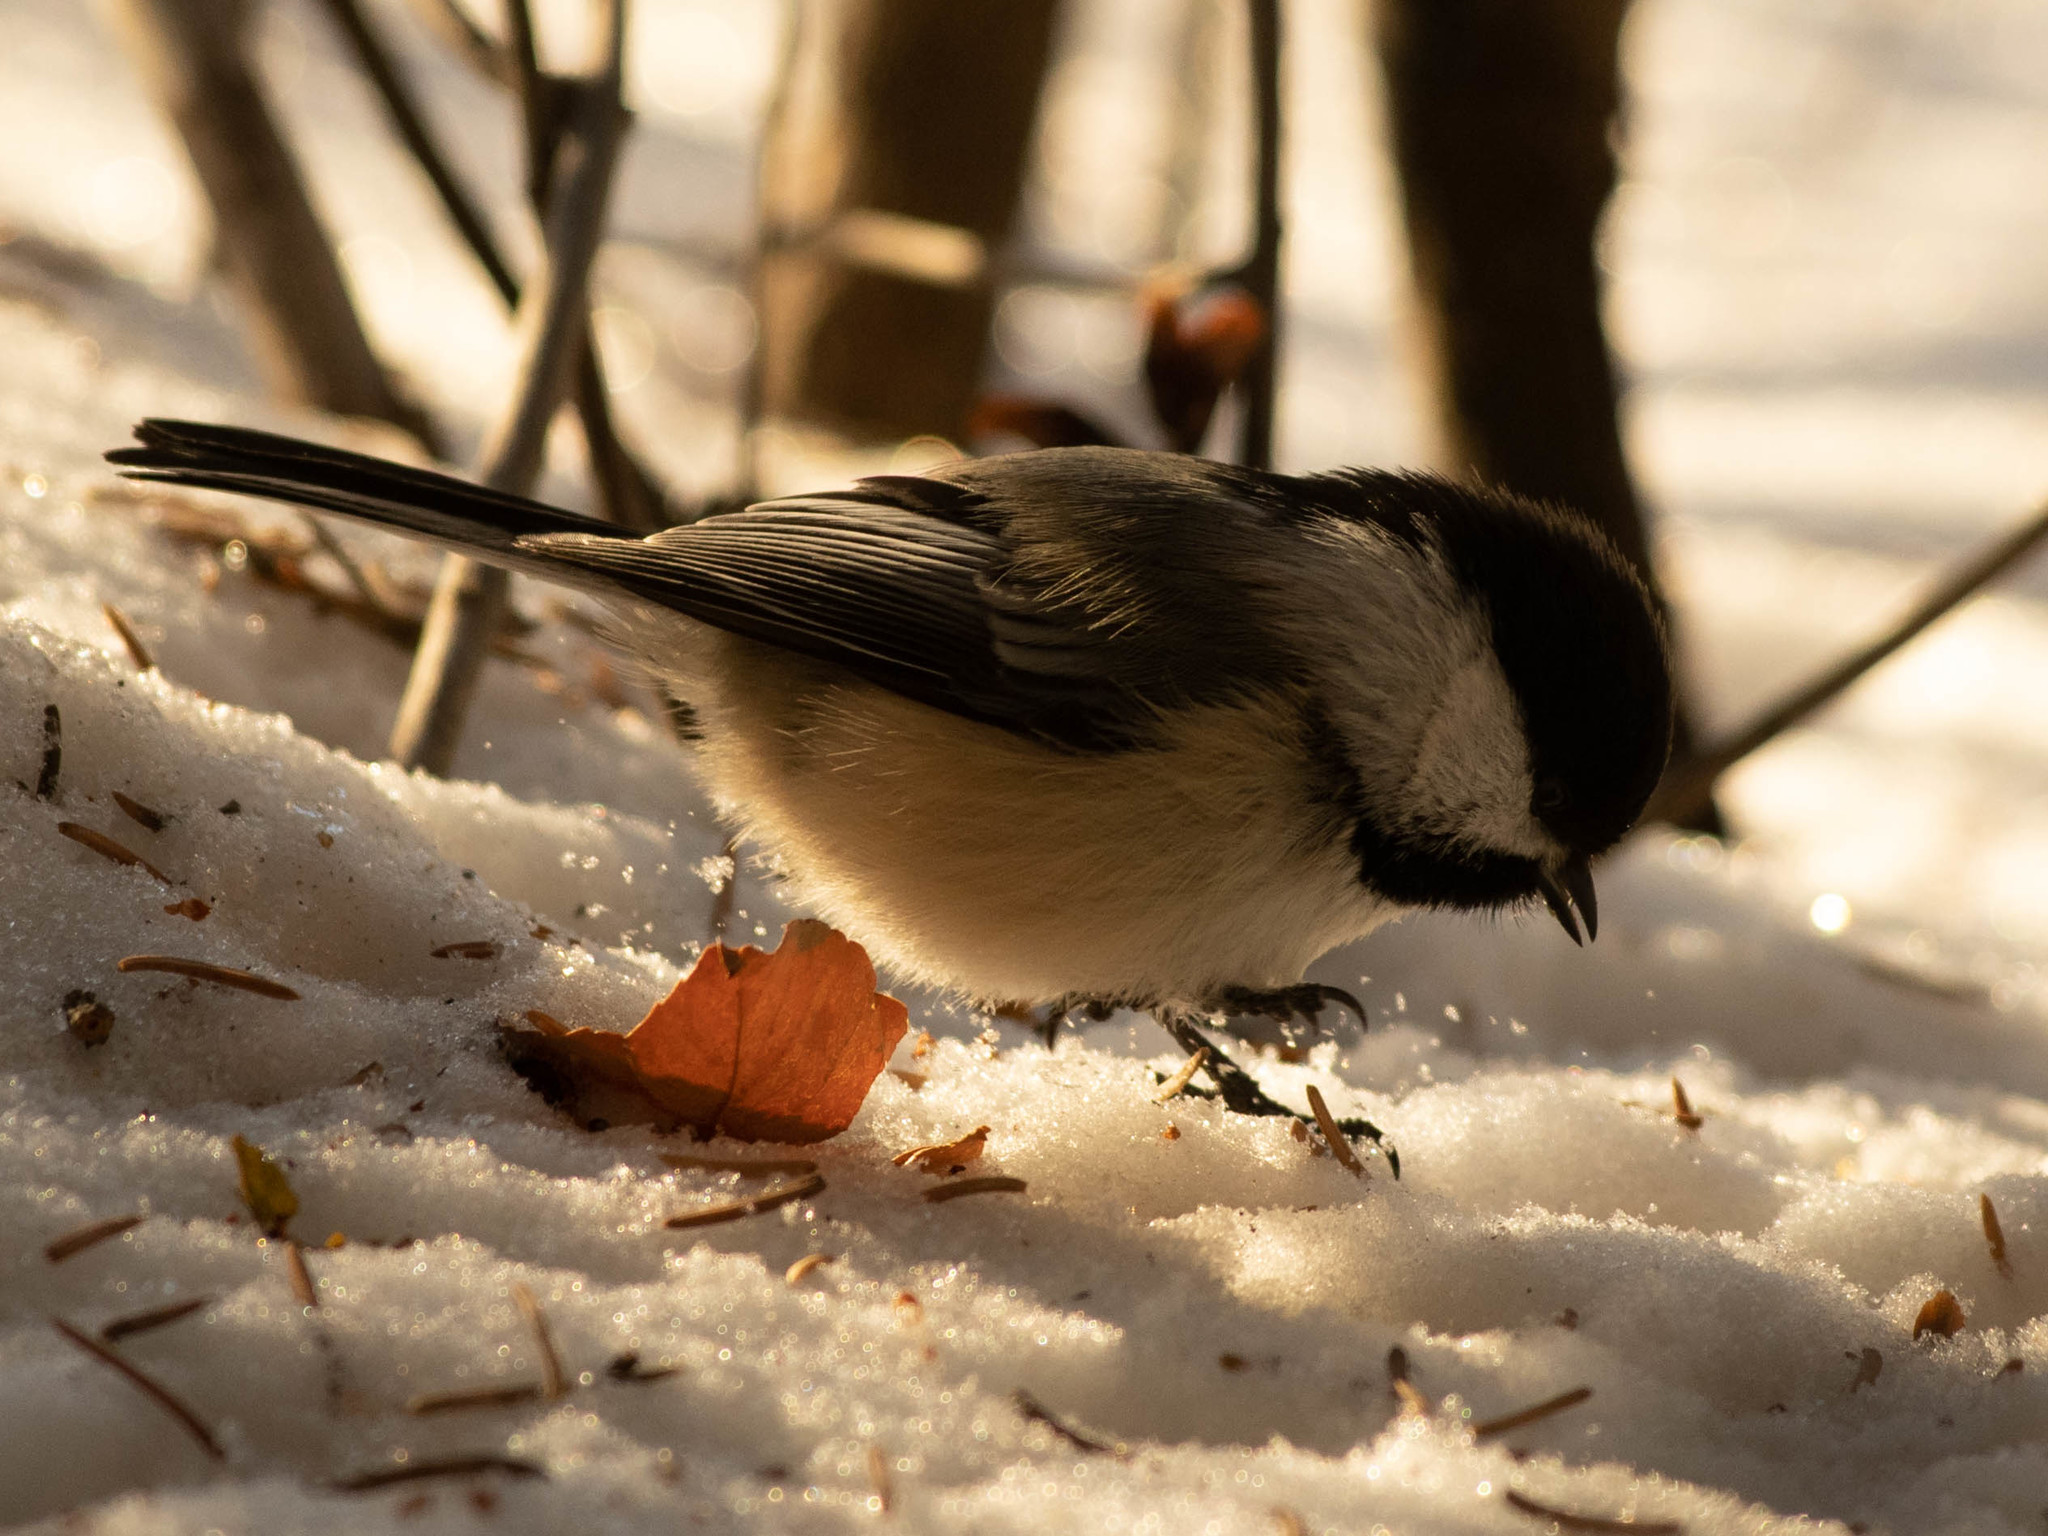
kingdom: Animalia
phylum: Chordata
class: Aves
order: Passeriformes
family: Paridae
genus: Poecile
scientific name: Poecile atricapillus
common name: Black-capped chickadee
